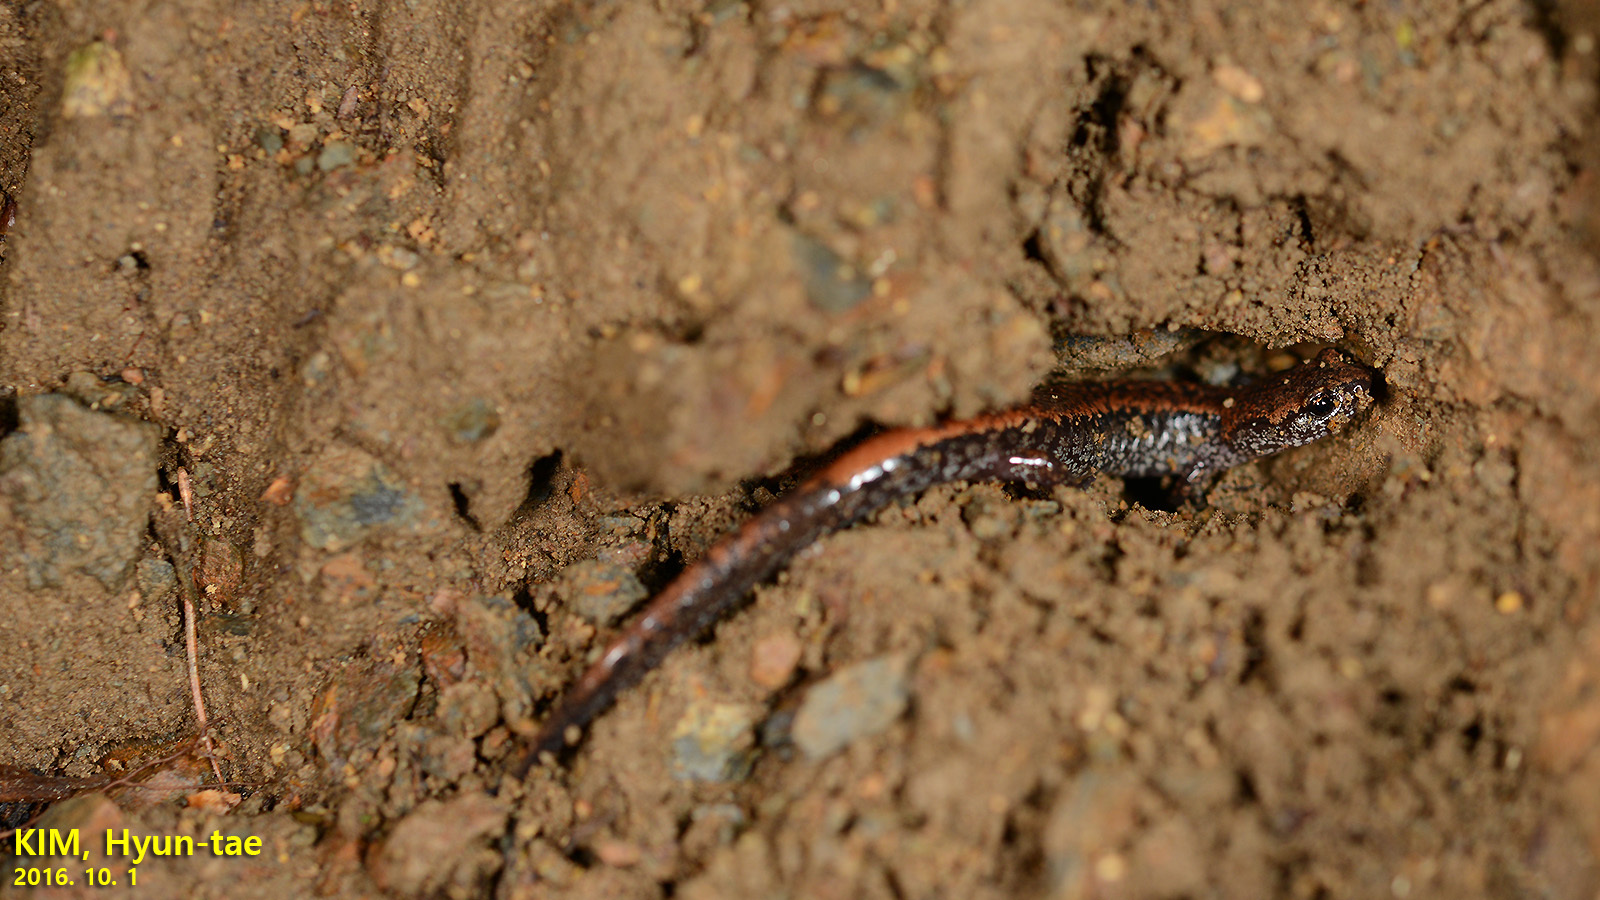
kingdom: Animalia
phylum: Chordata
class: Amphibia
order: Caudata
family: Plethodontidae
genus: Karsenia
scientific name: Karsenia koreana
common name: Korean crevice salamander
